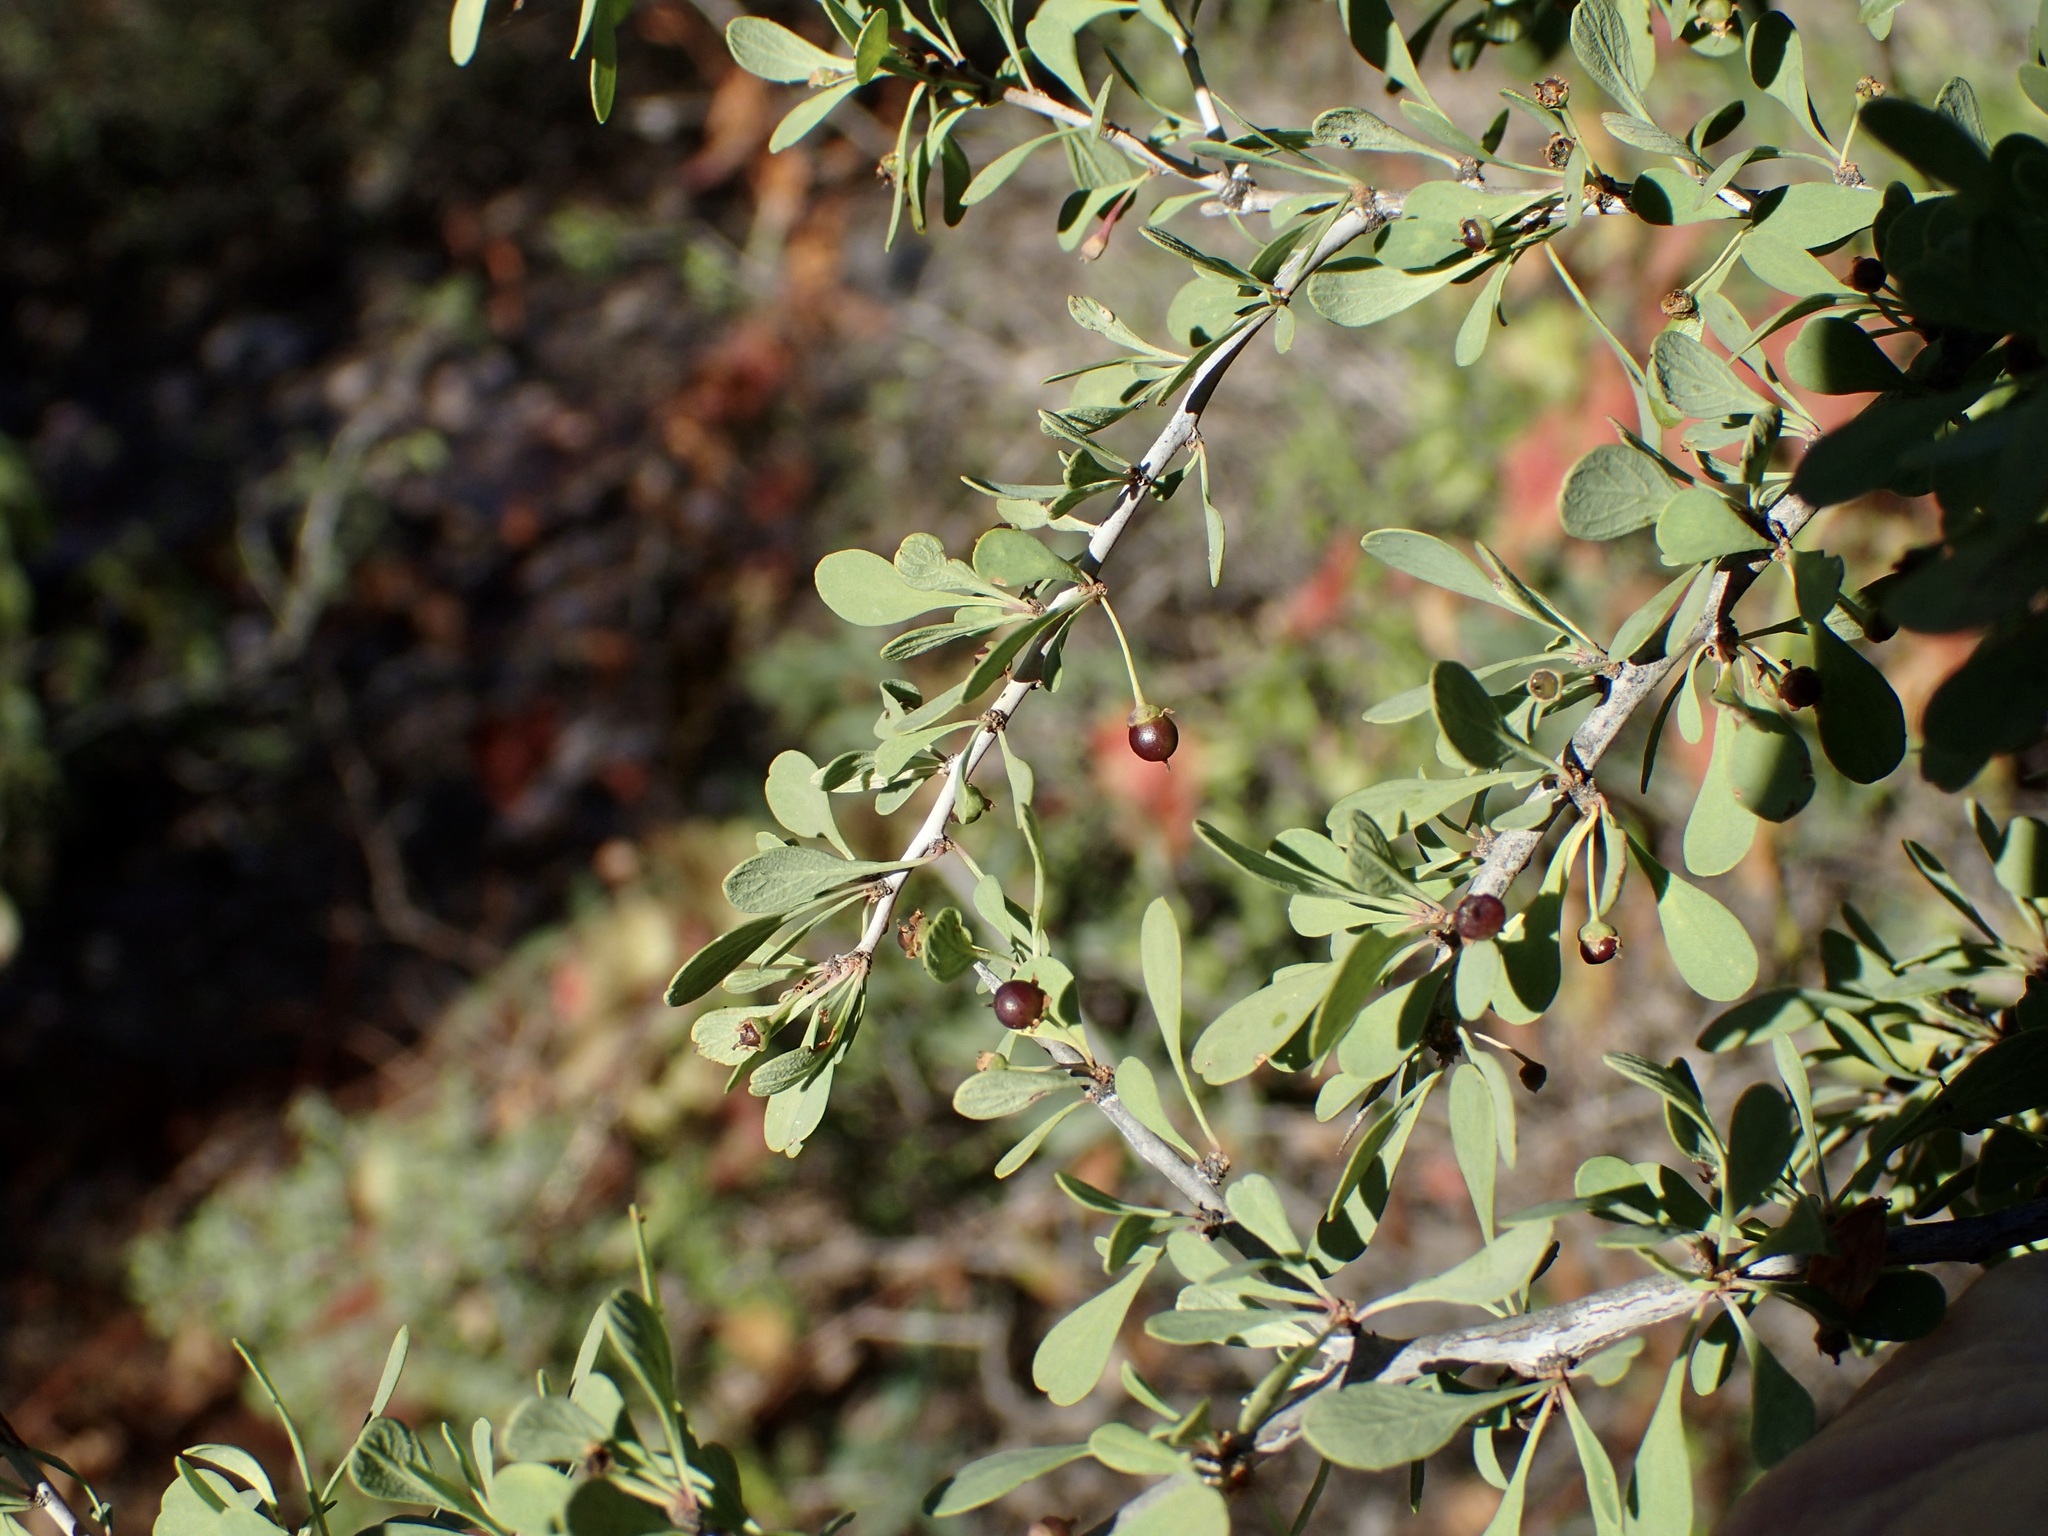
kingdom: Plantae
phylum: Tracheophyta
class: Magnoliopsida
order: Rosales
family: Rhamnaceae
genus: Condalia
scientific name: Condalia globosa
